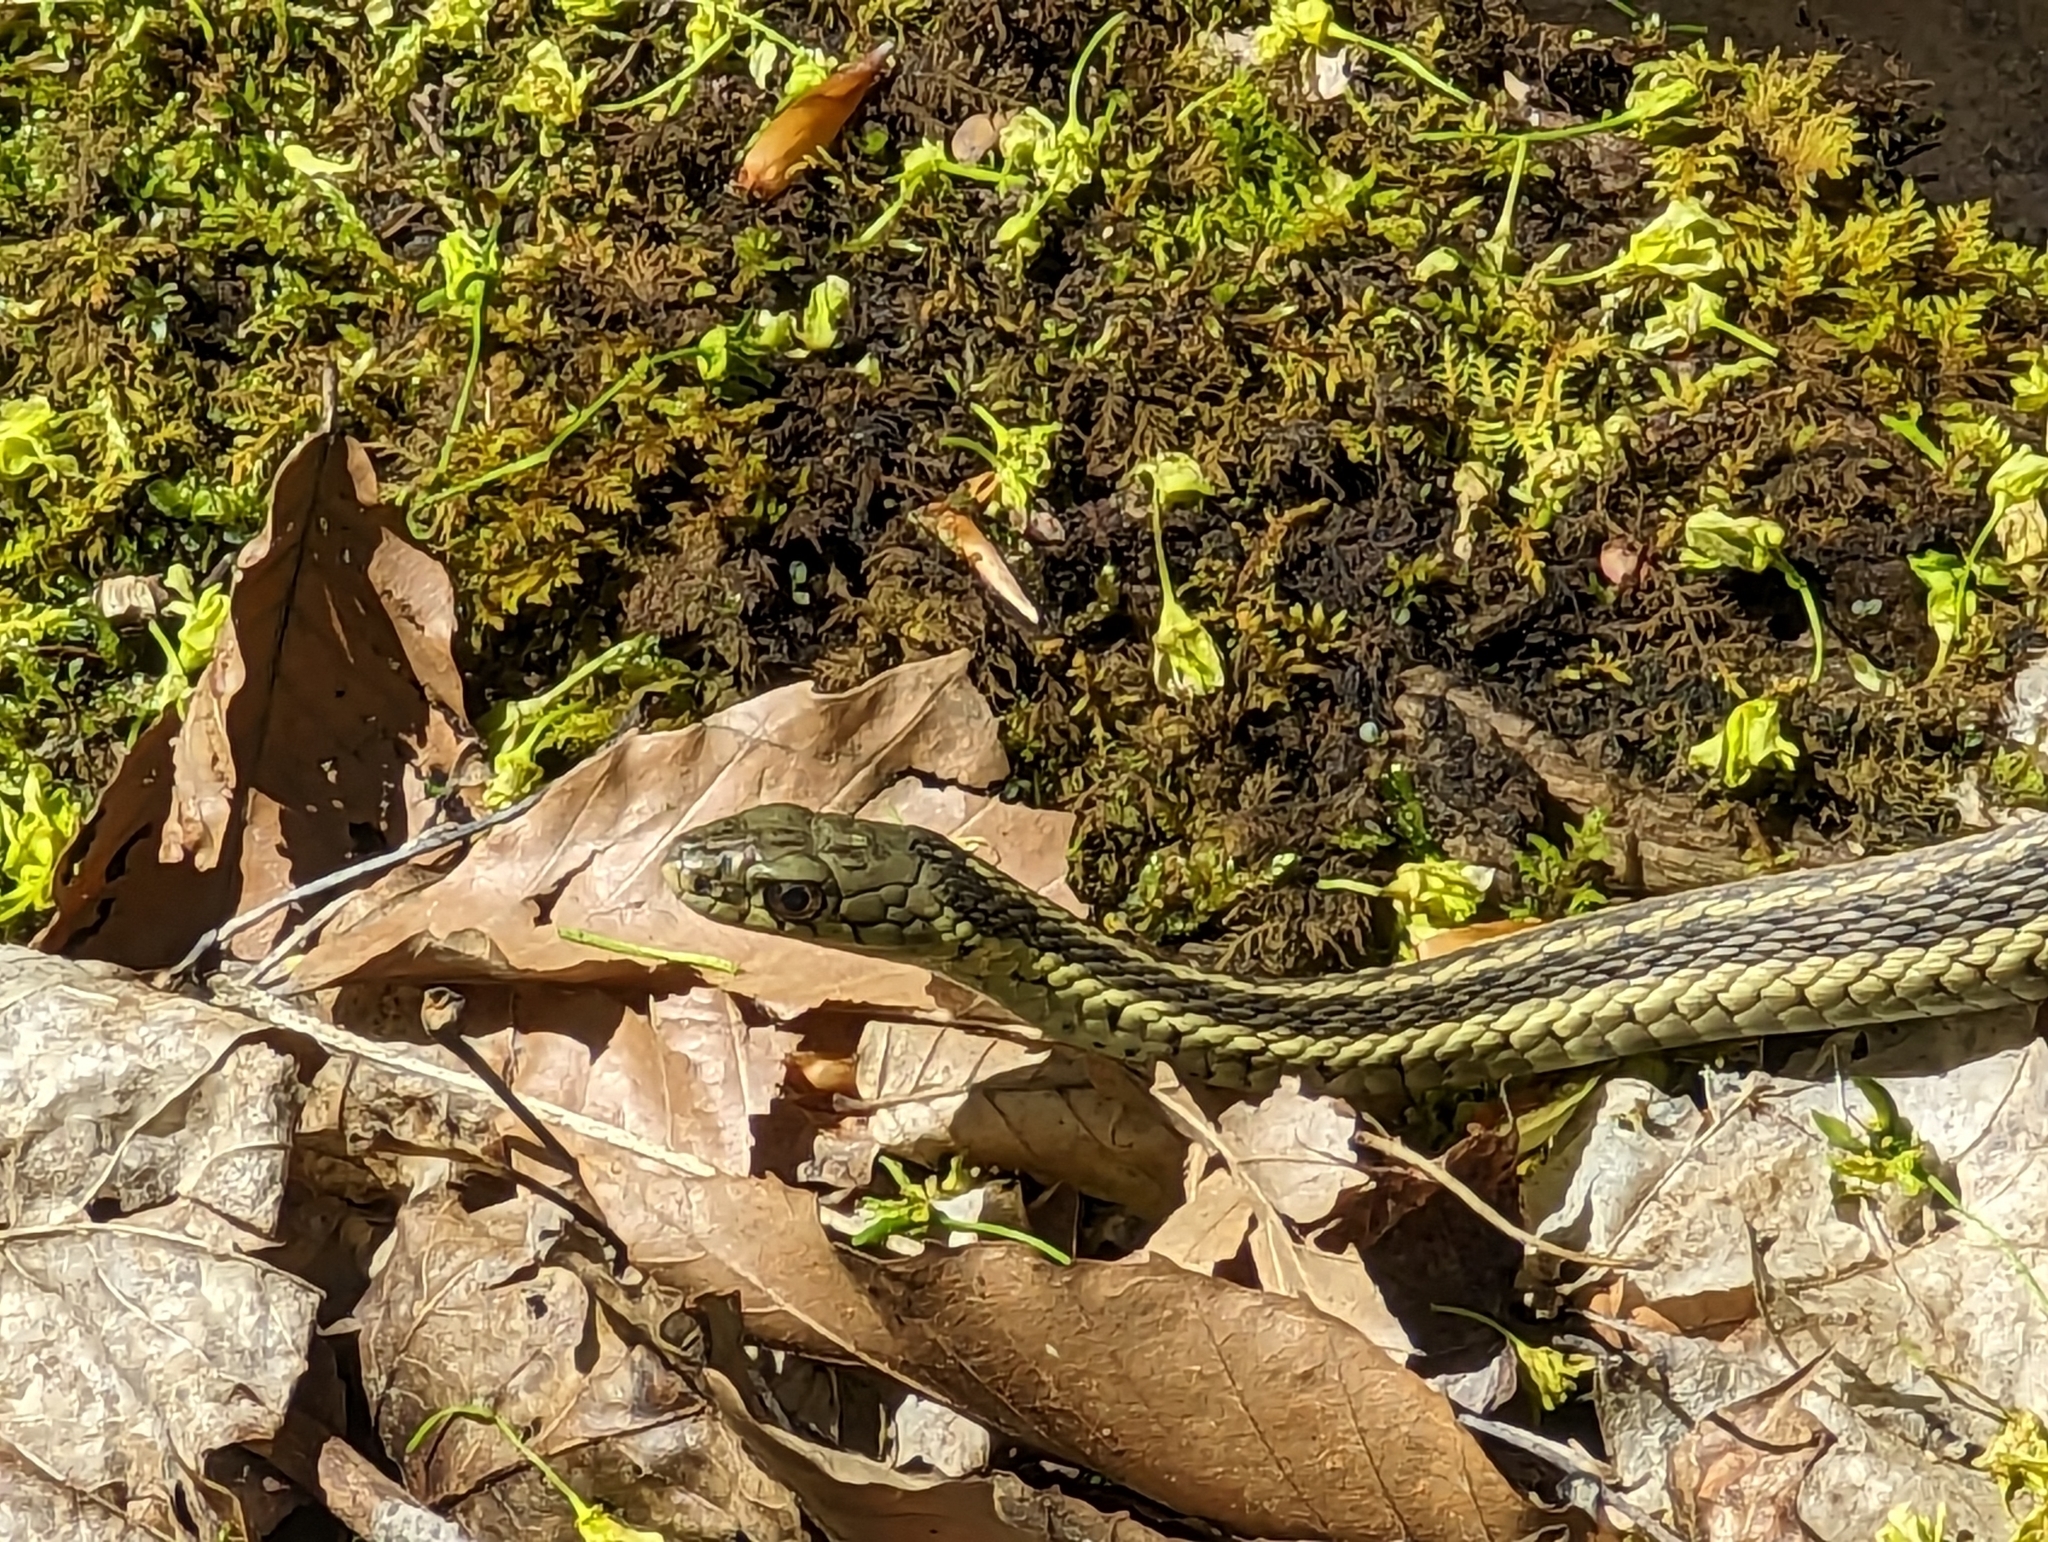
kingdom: Animalia
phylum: Chordata
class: Squamata
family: Colubridae
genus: Thamnophis
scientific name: Thamnophis sirtalis
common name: Common garter snake
